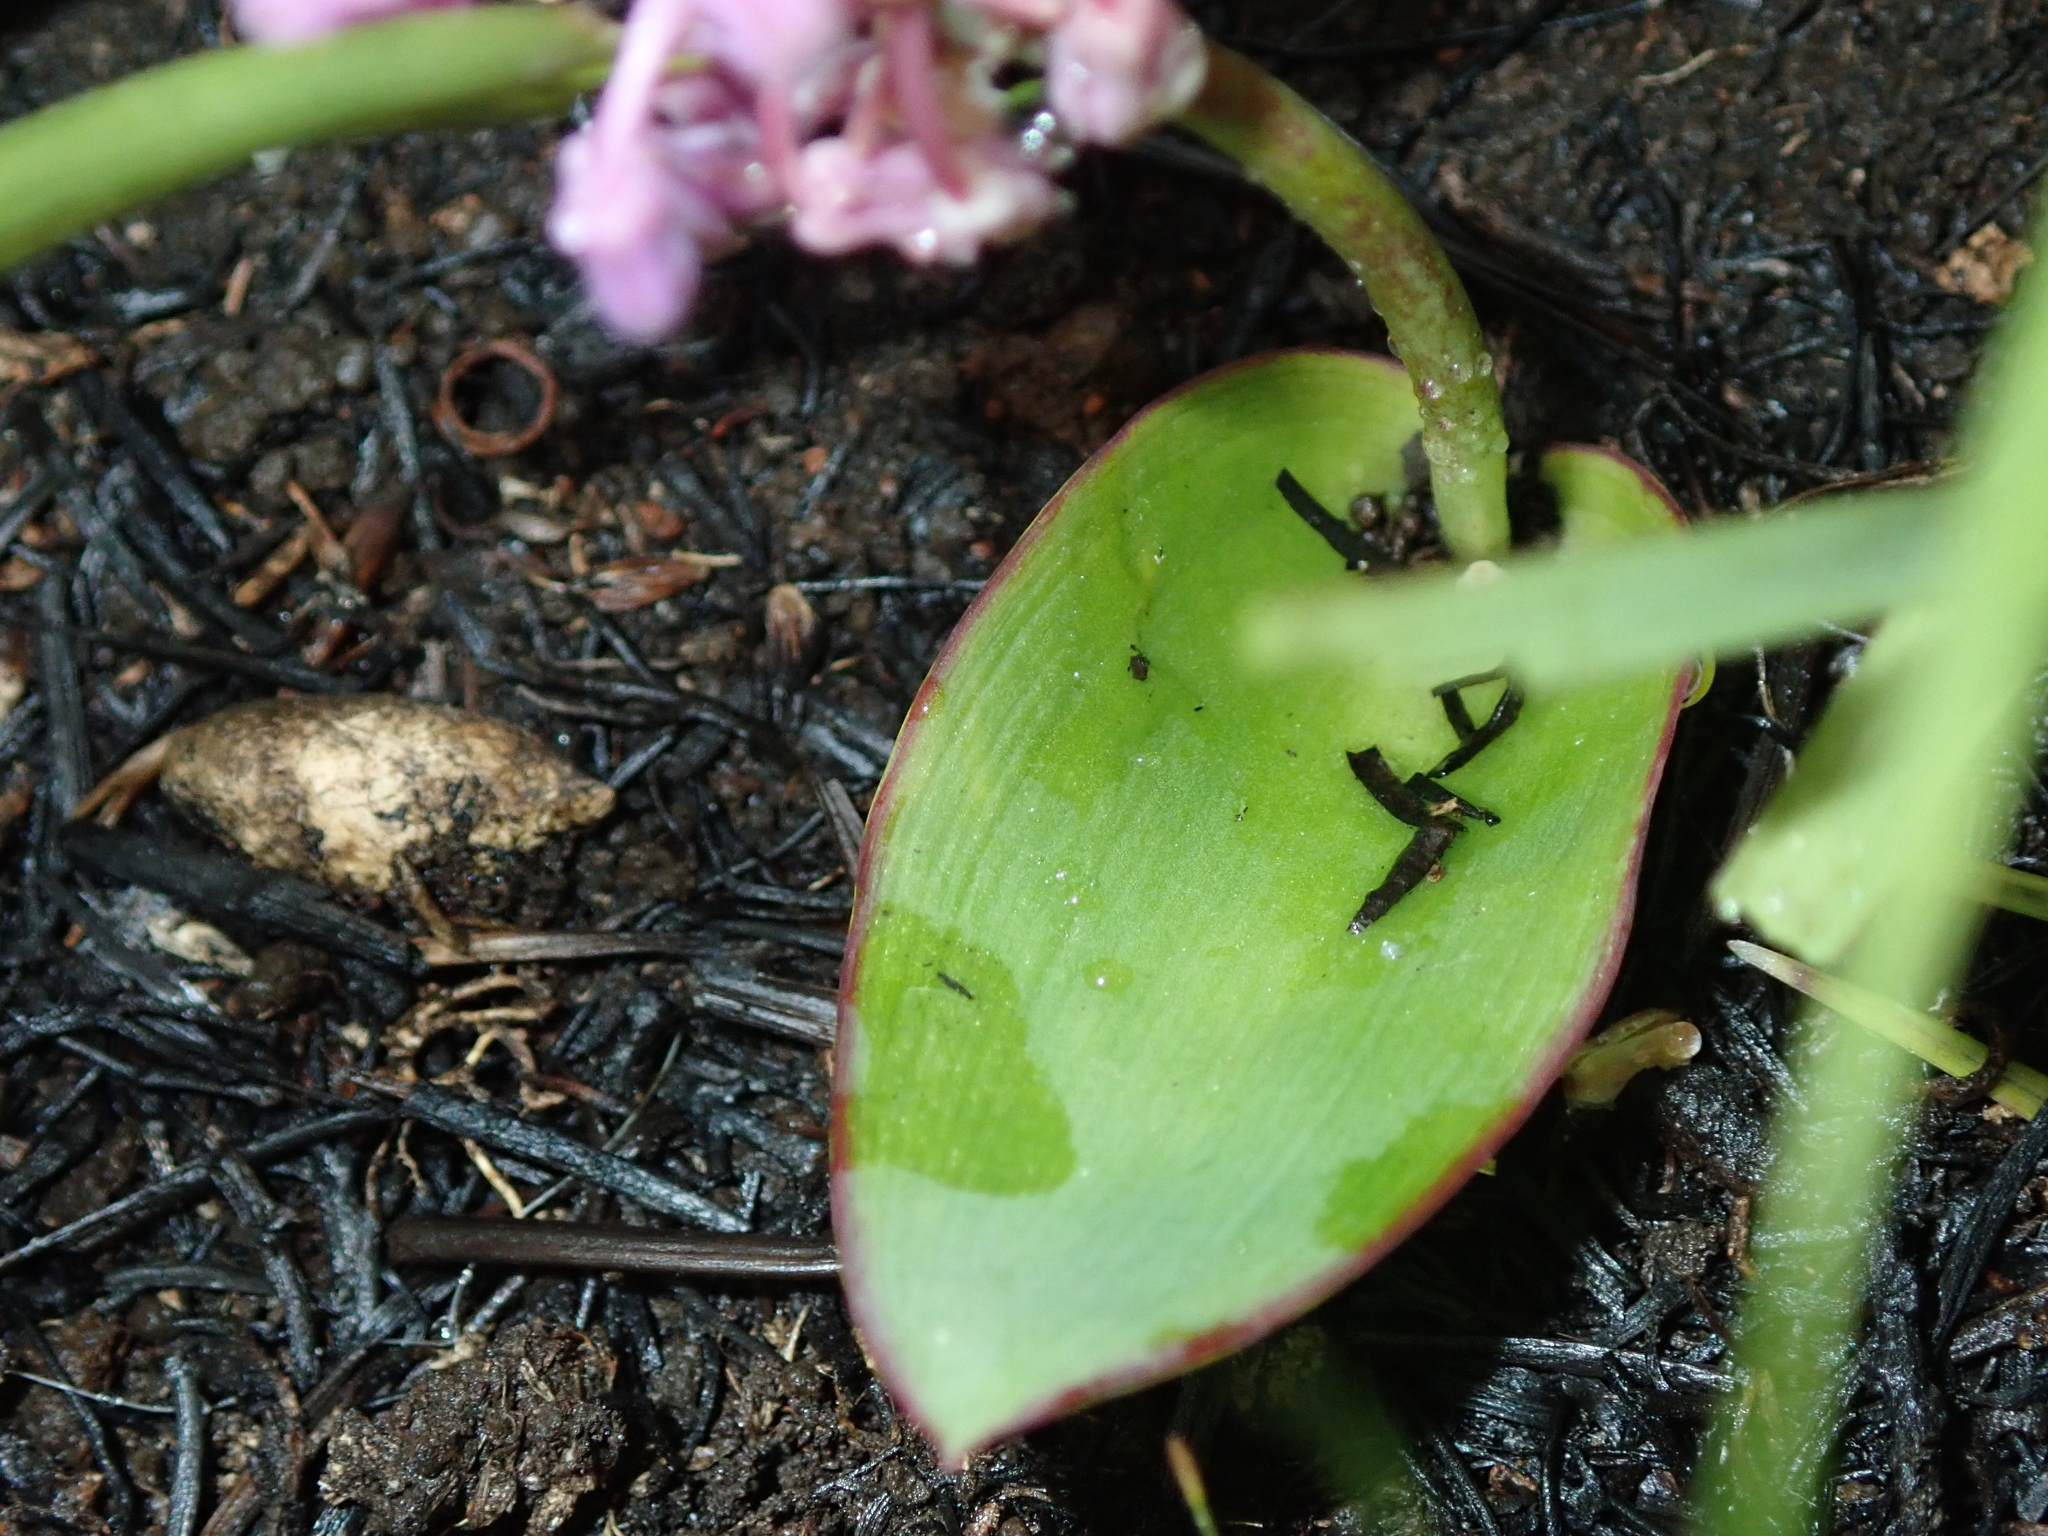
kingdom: Plantae
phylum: Tracheophyta
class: Liliopsida
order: Asparagales
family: Asparagaceae
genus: Ledebouria
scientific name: Ledebouria sandersonii
